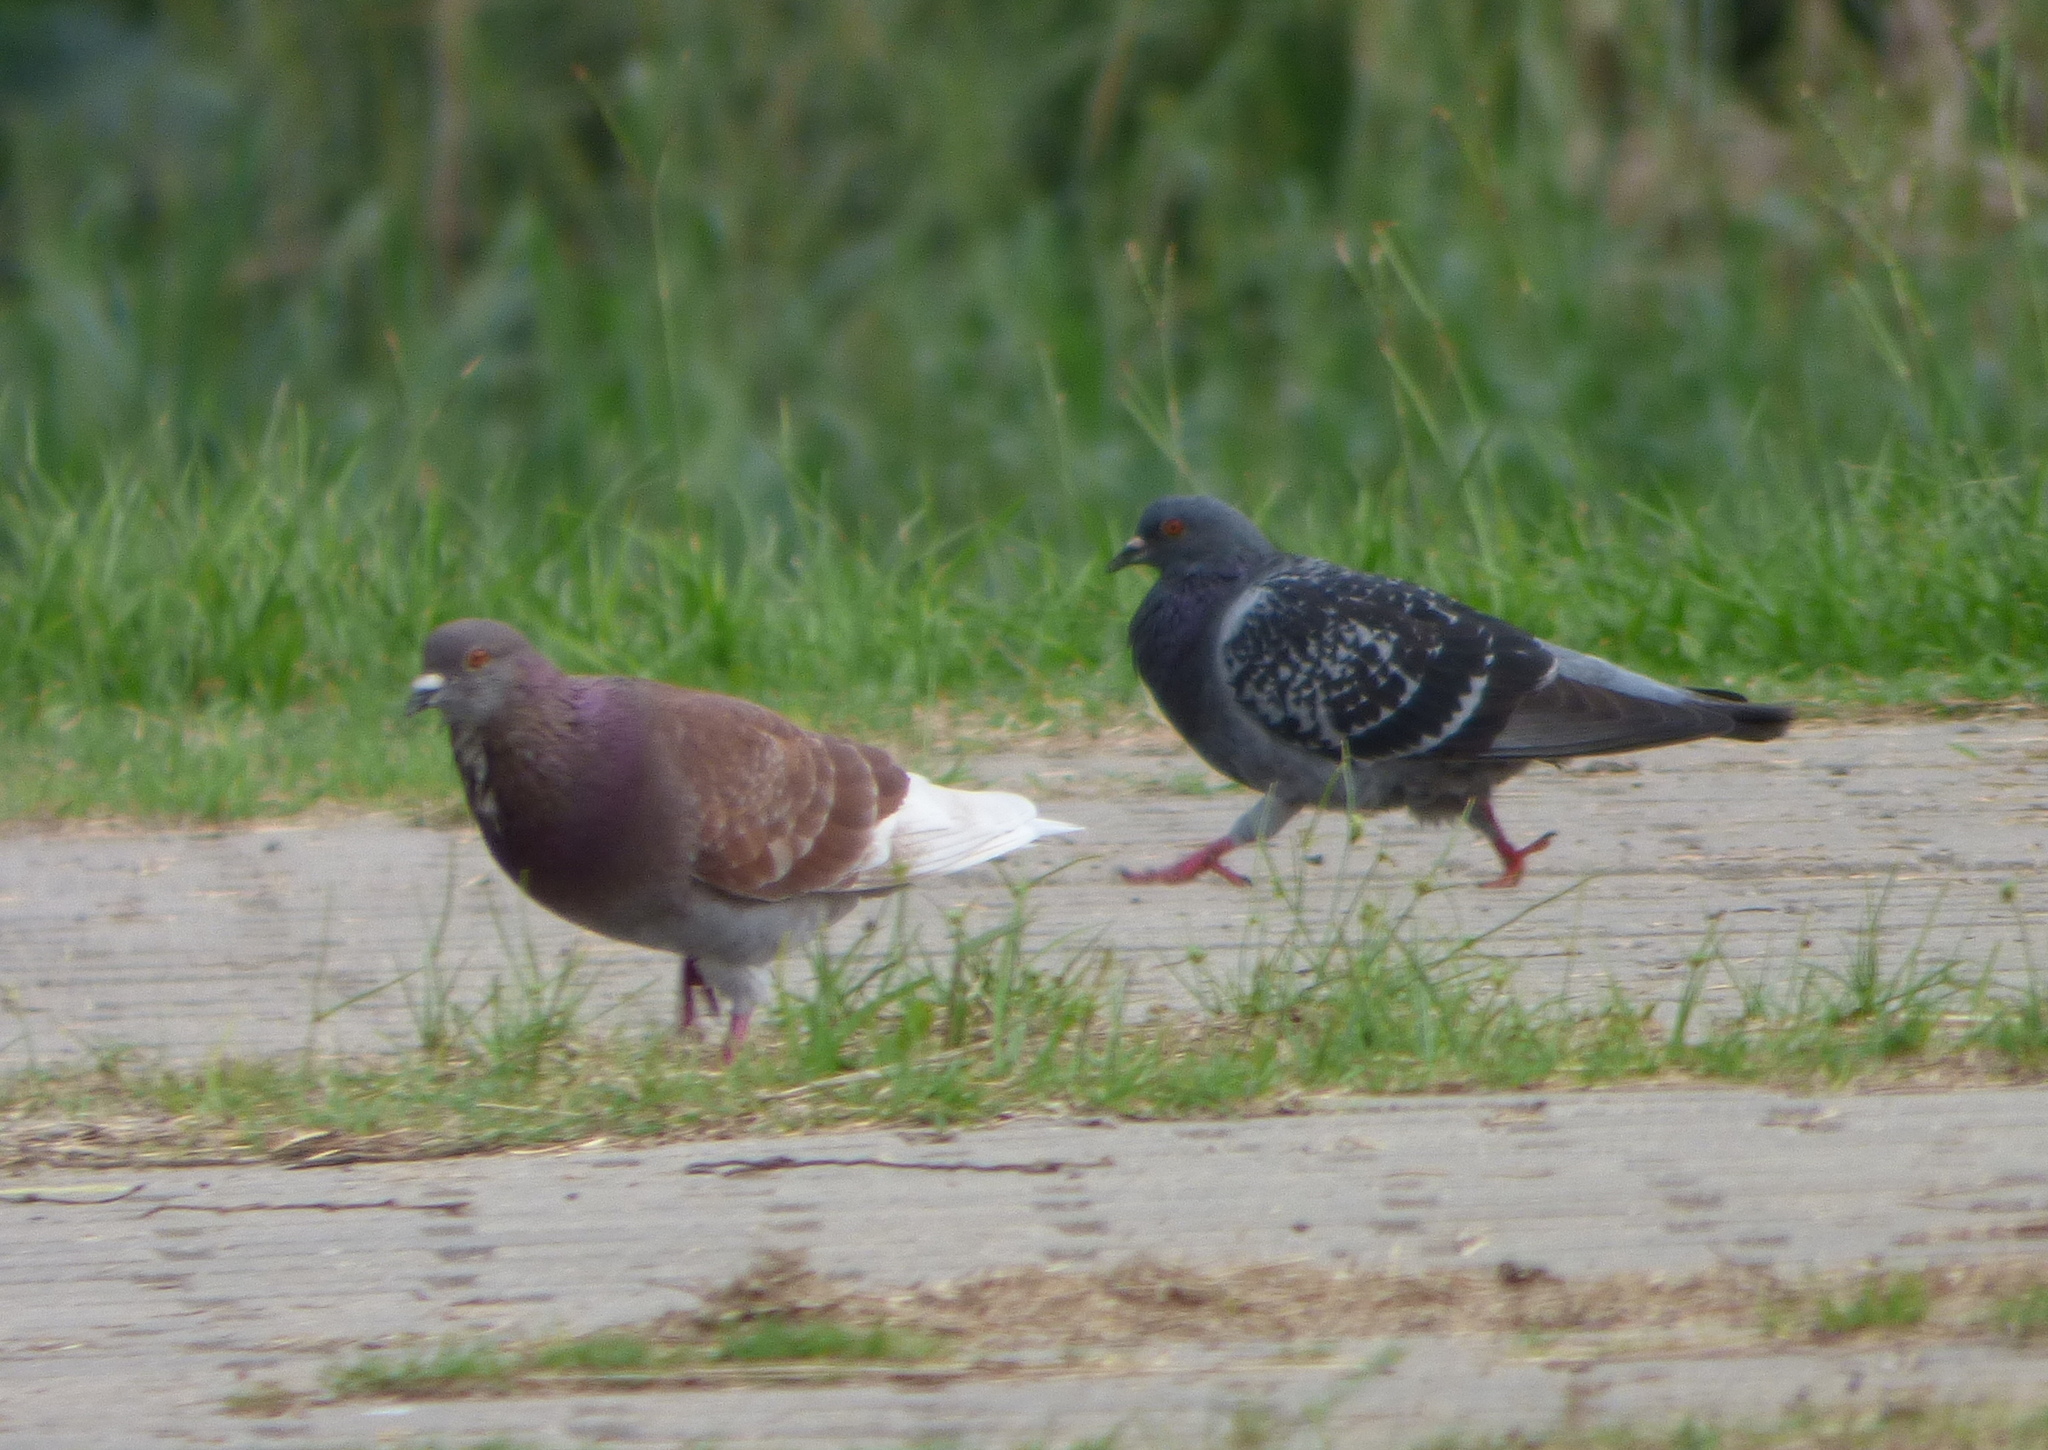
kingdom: Animalia
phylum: Chordata
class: Aves
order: Columbiformes
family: Columbidae
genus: Columba
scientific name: Columba livia
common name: Rock pigeon
